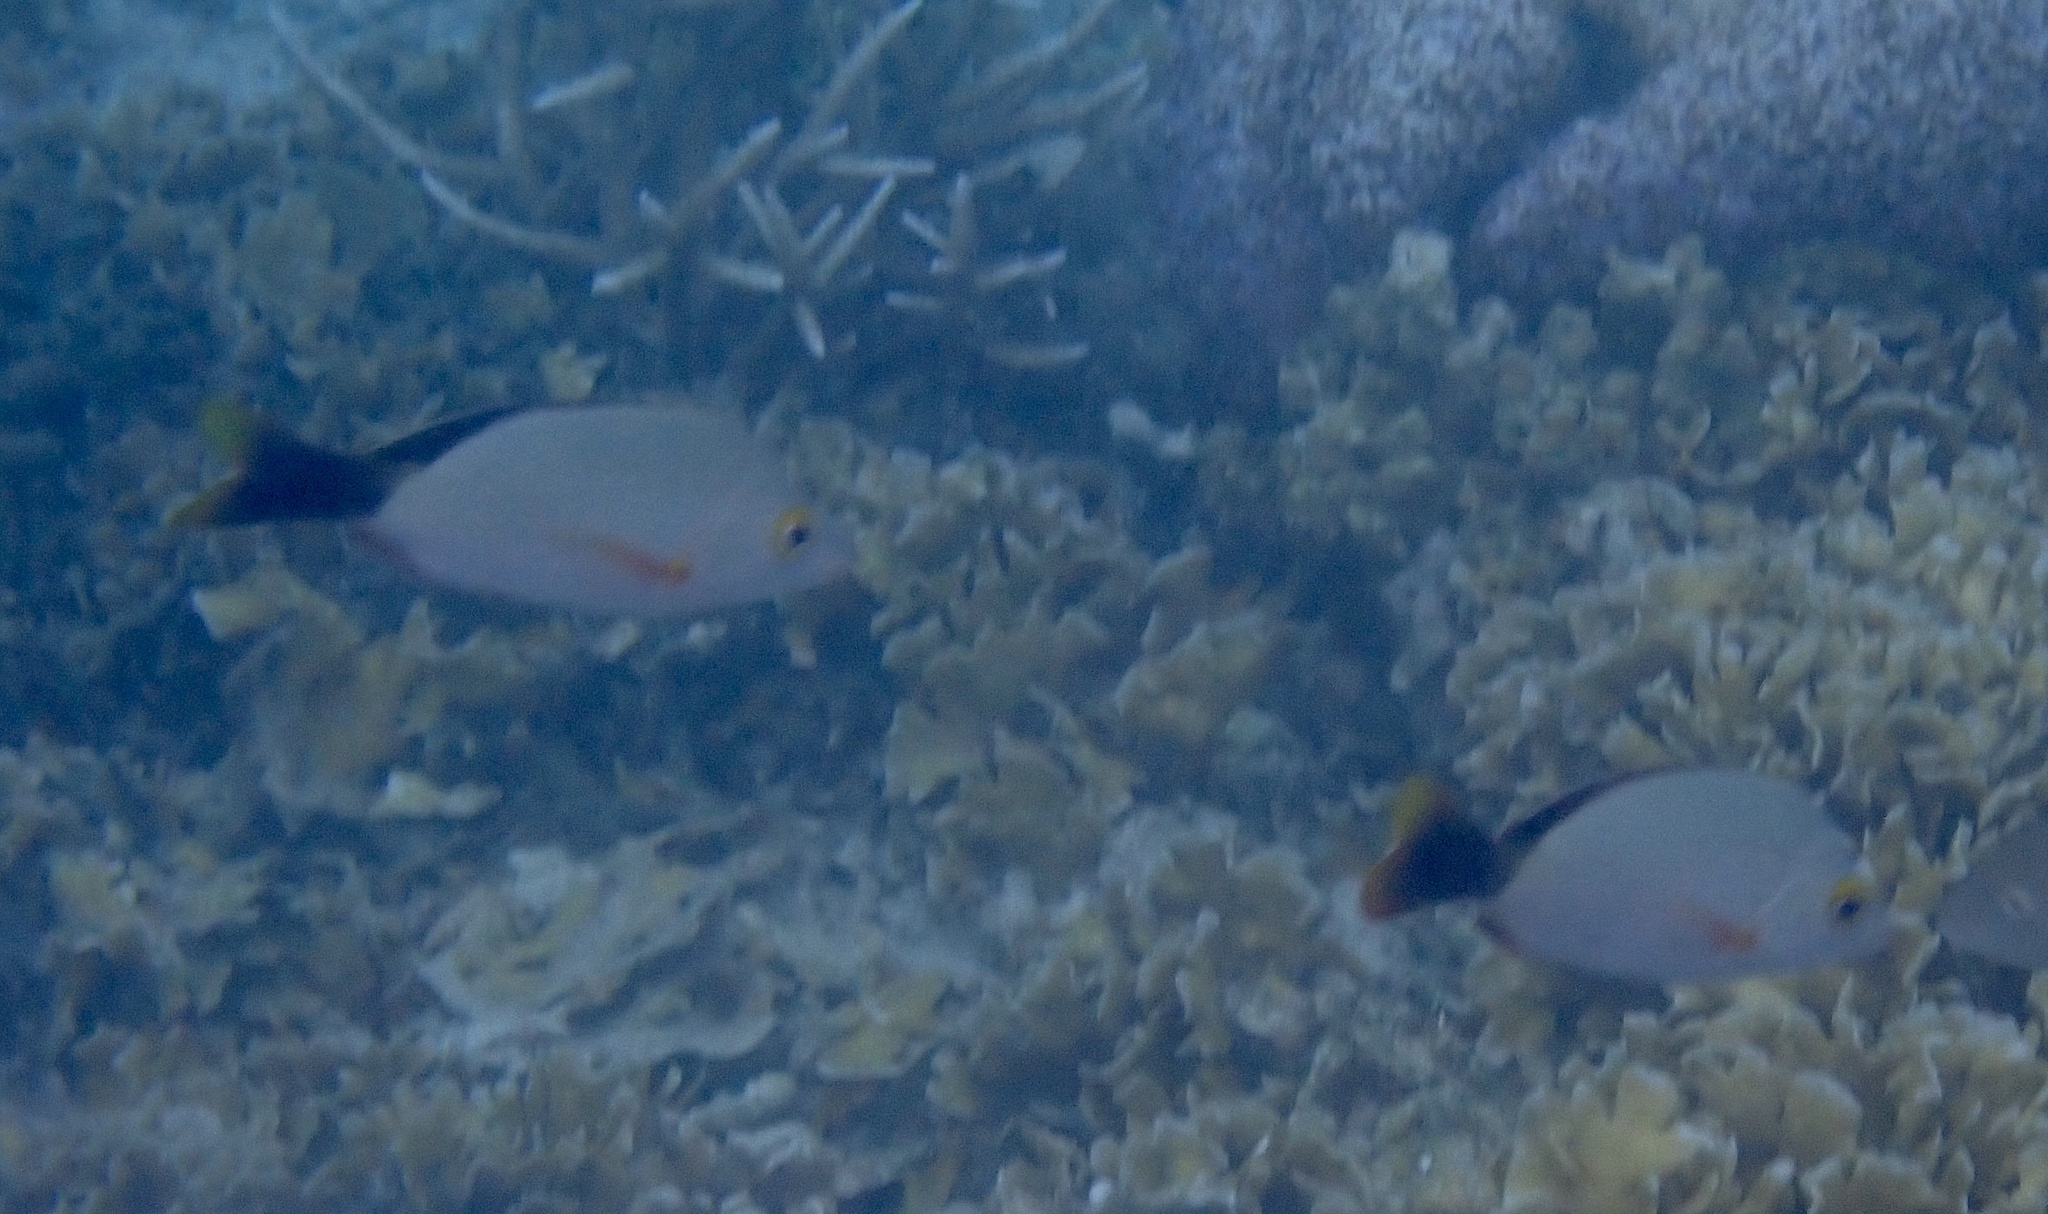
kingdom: Animalia
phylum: Chordata
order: Perciformes
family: Lutjanidae
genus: Lutjanus
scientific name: Lutjanus gibbus
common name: Humpback snapper
